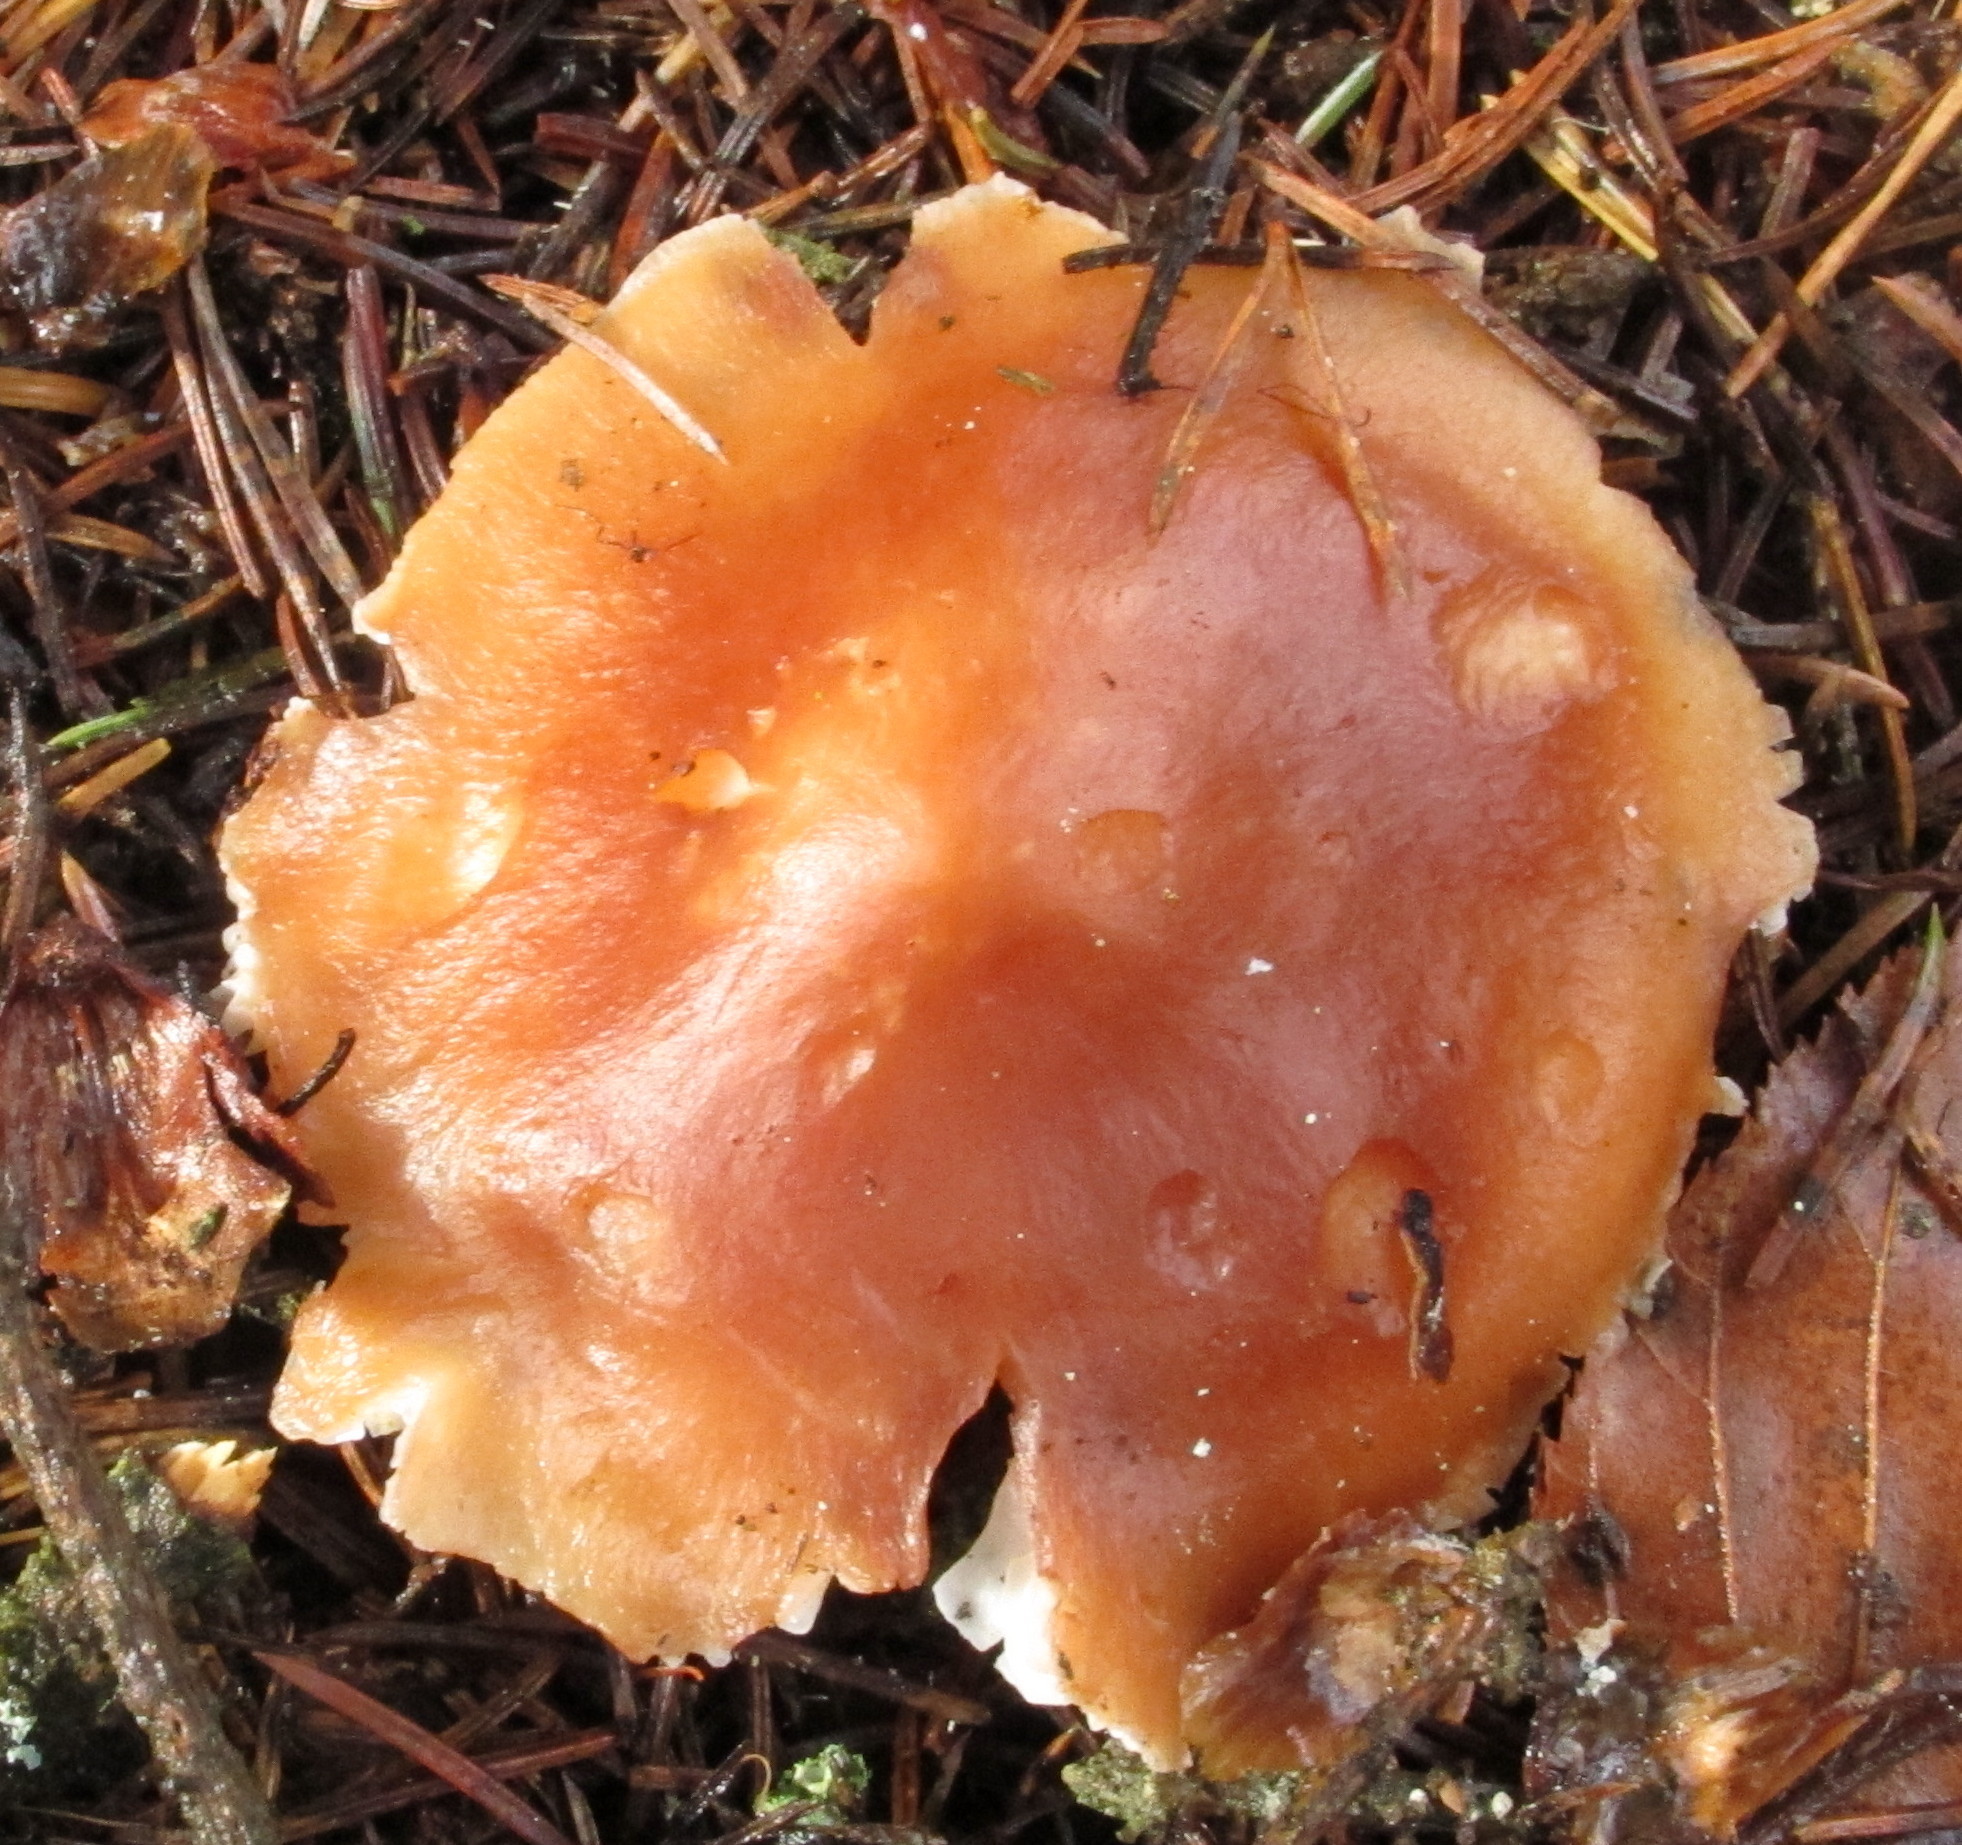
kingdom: Fungi
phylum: Basidiomycota
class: Agaricomycetes
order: Agaricales
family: Omphalotaceae
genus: Rhodocollybia
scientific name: Rhodocollybia butyracea
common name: Butter cap
